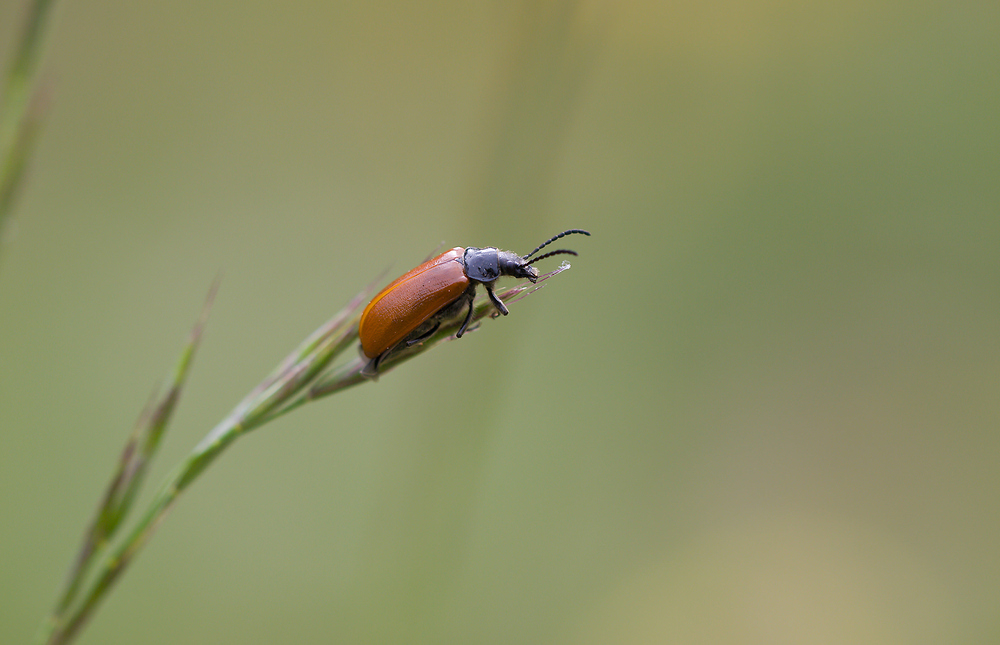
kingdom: Animalia
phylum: Arthropoda
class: Insecta
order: Coleoptera
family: Tenebrionidae
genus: Omophlus
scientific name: Omophlus lepturoides
